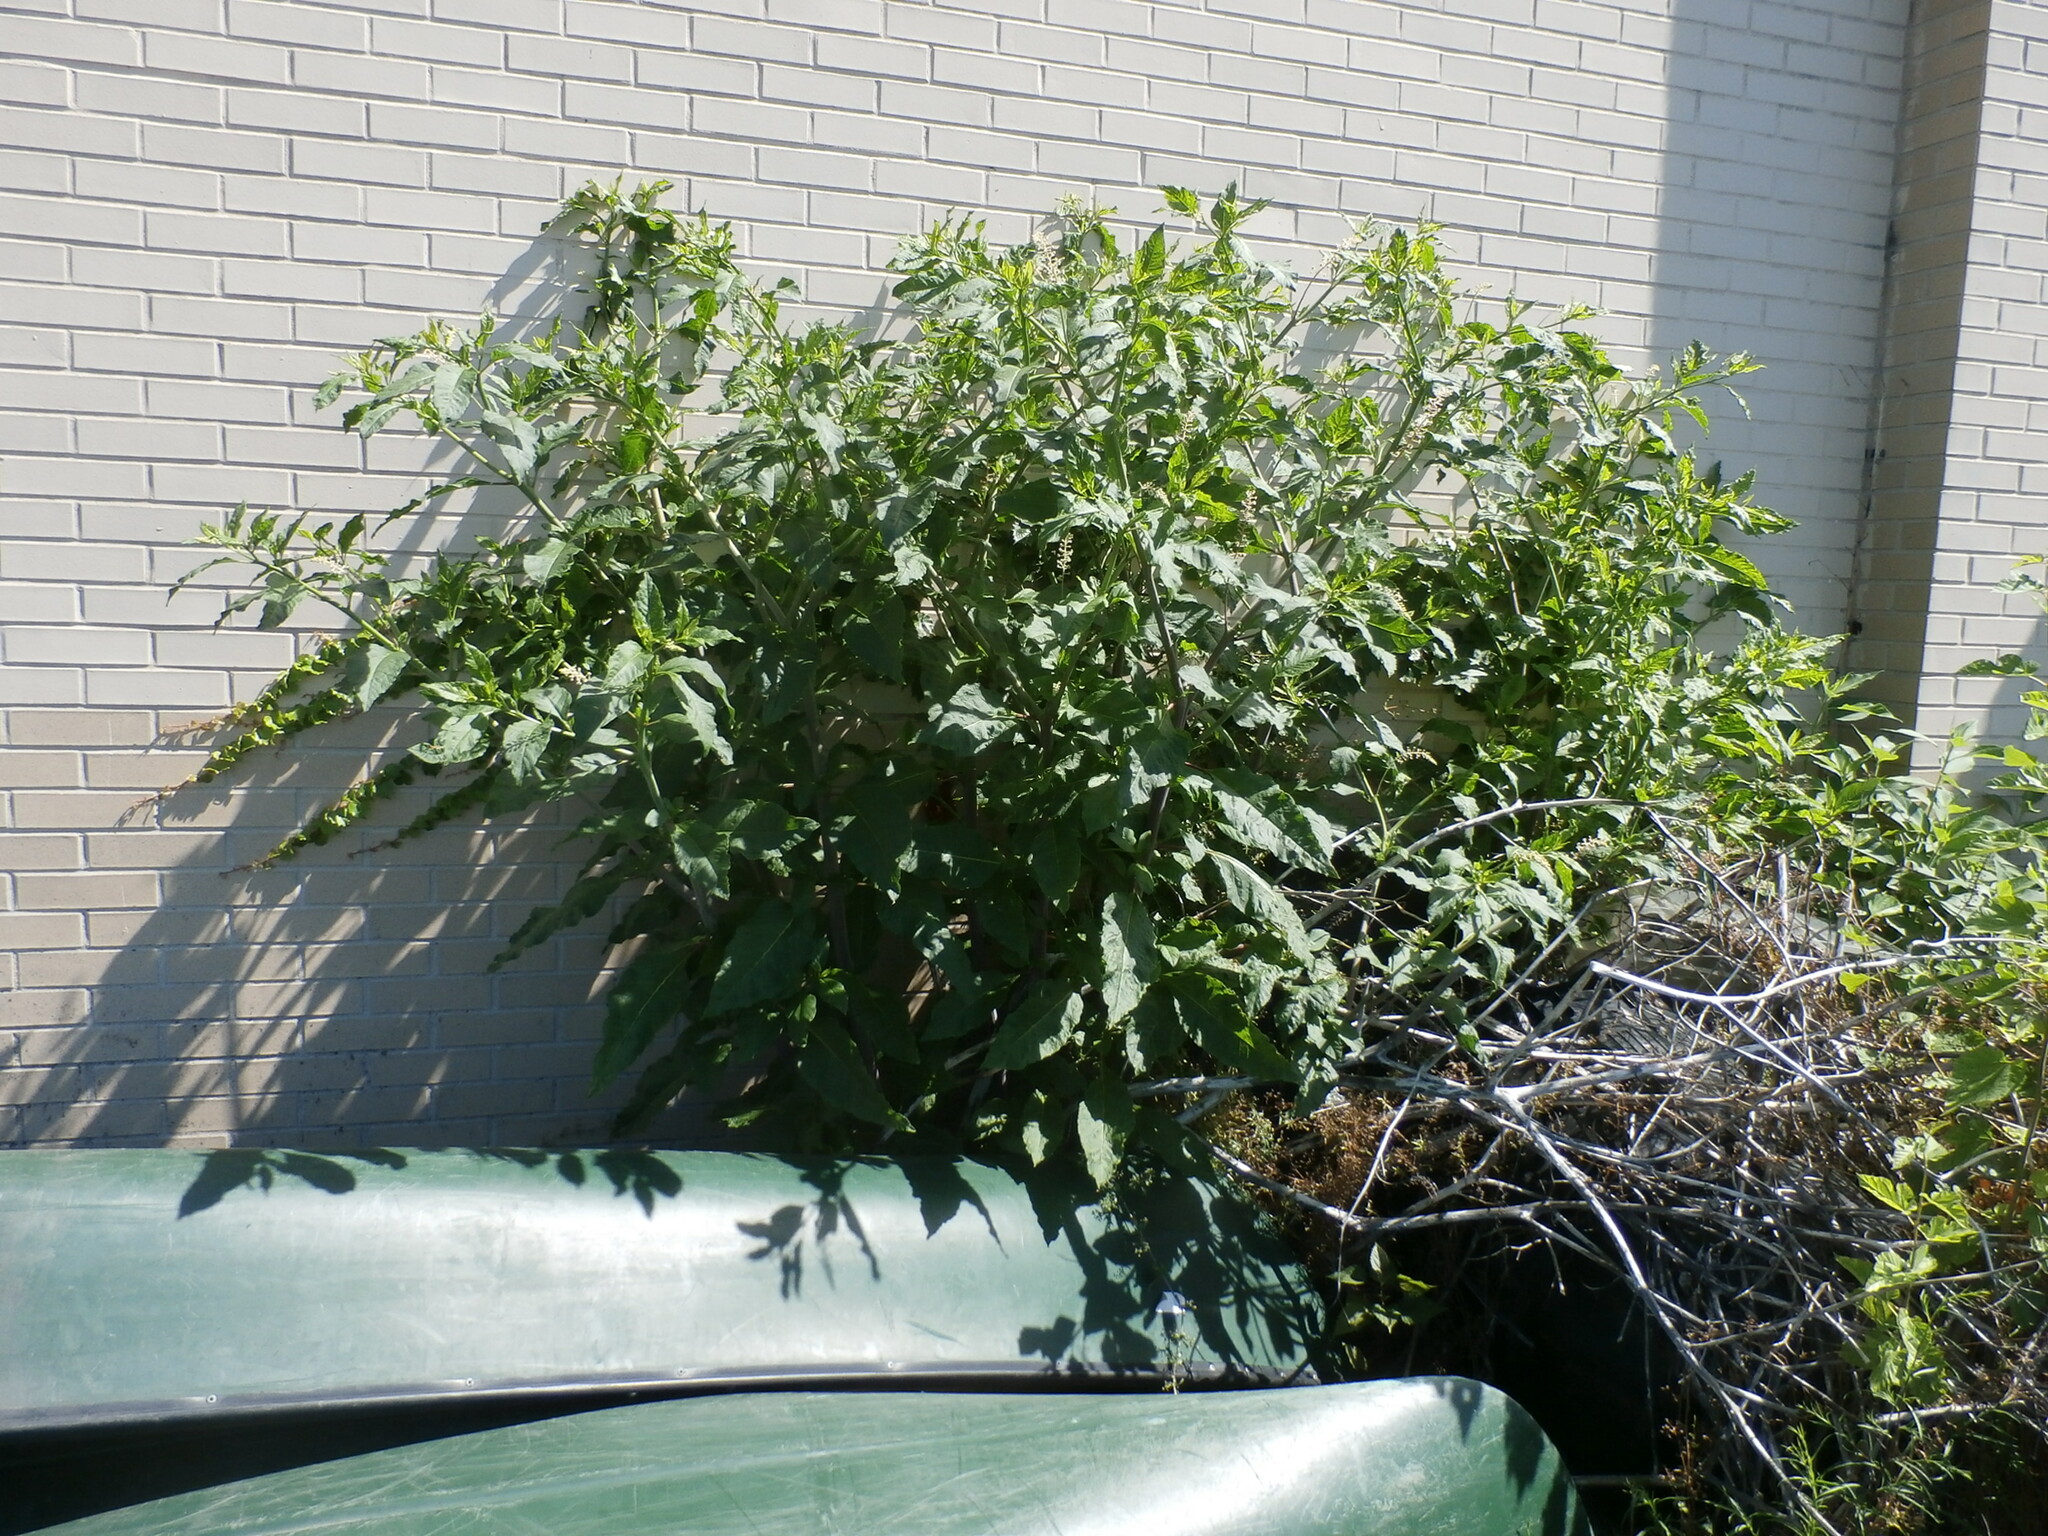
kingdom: Plantae
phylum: Tracheophyta
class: Magnoliopsida
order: Caryophyllales
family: Phytolaccaceae
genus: Phytolacca
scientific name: Phytolacca americana
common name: American pokeweed
